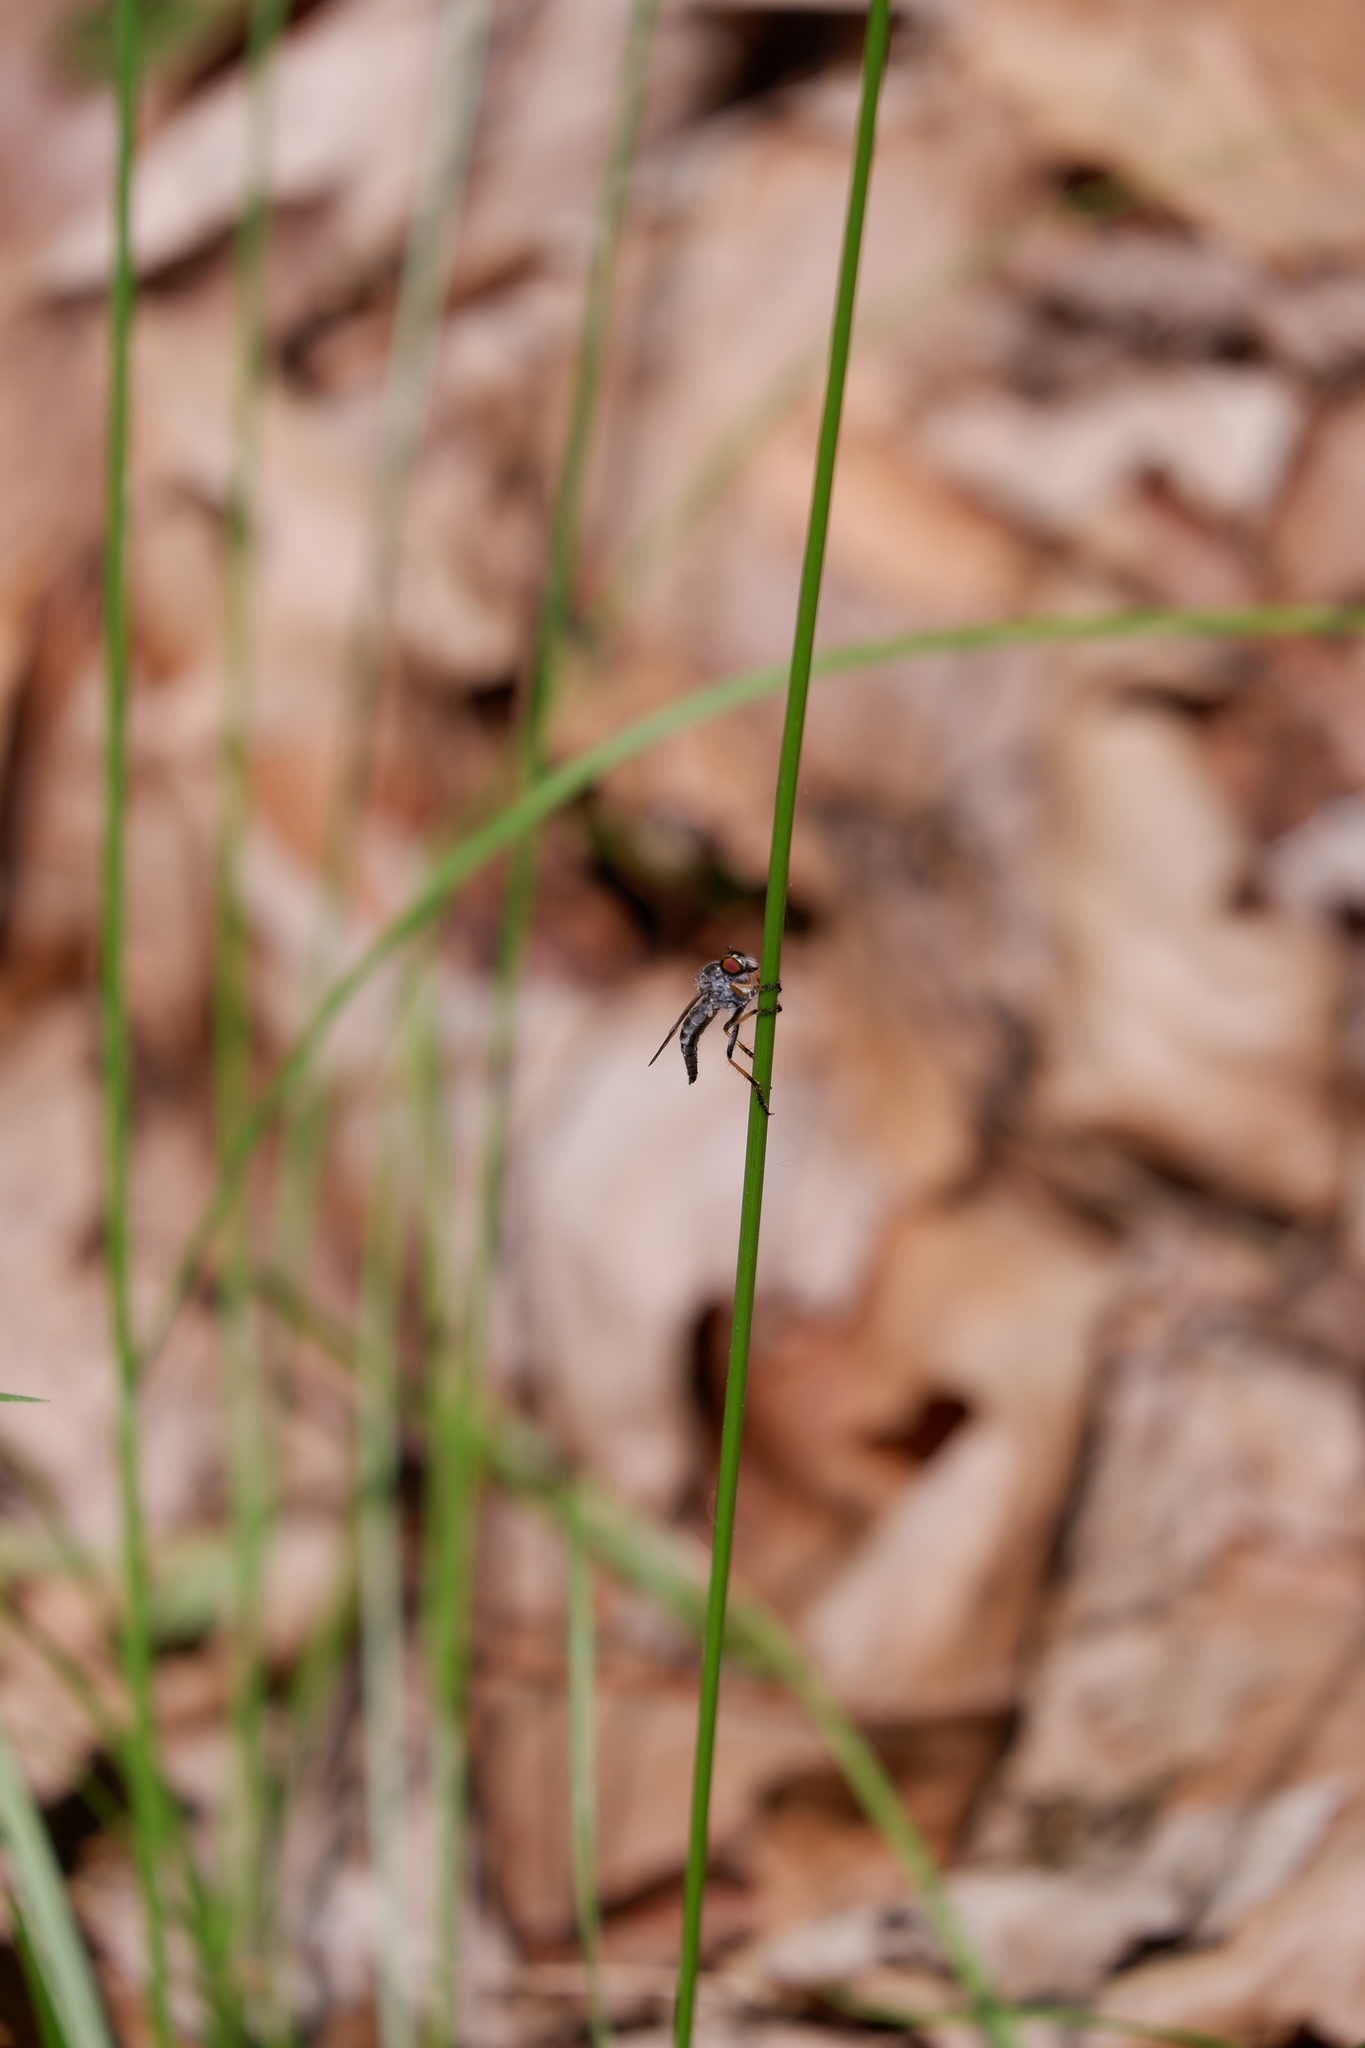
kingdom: Animalia
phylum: Arthropoda
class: Insecta
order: Diptera
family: Asilidae
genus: Asilus
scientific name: Asilus flavofemoratus
